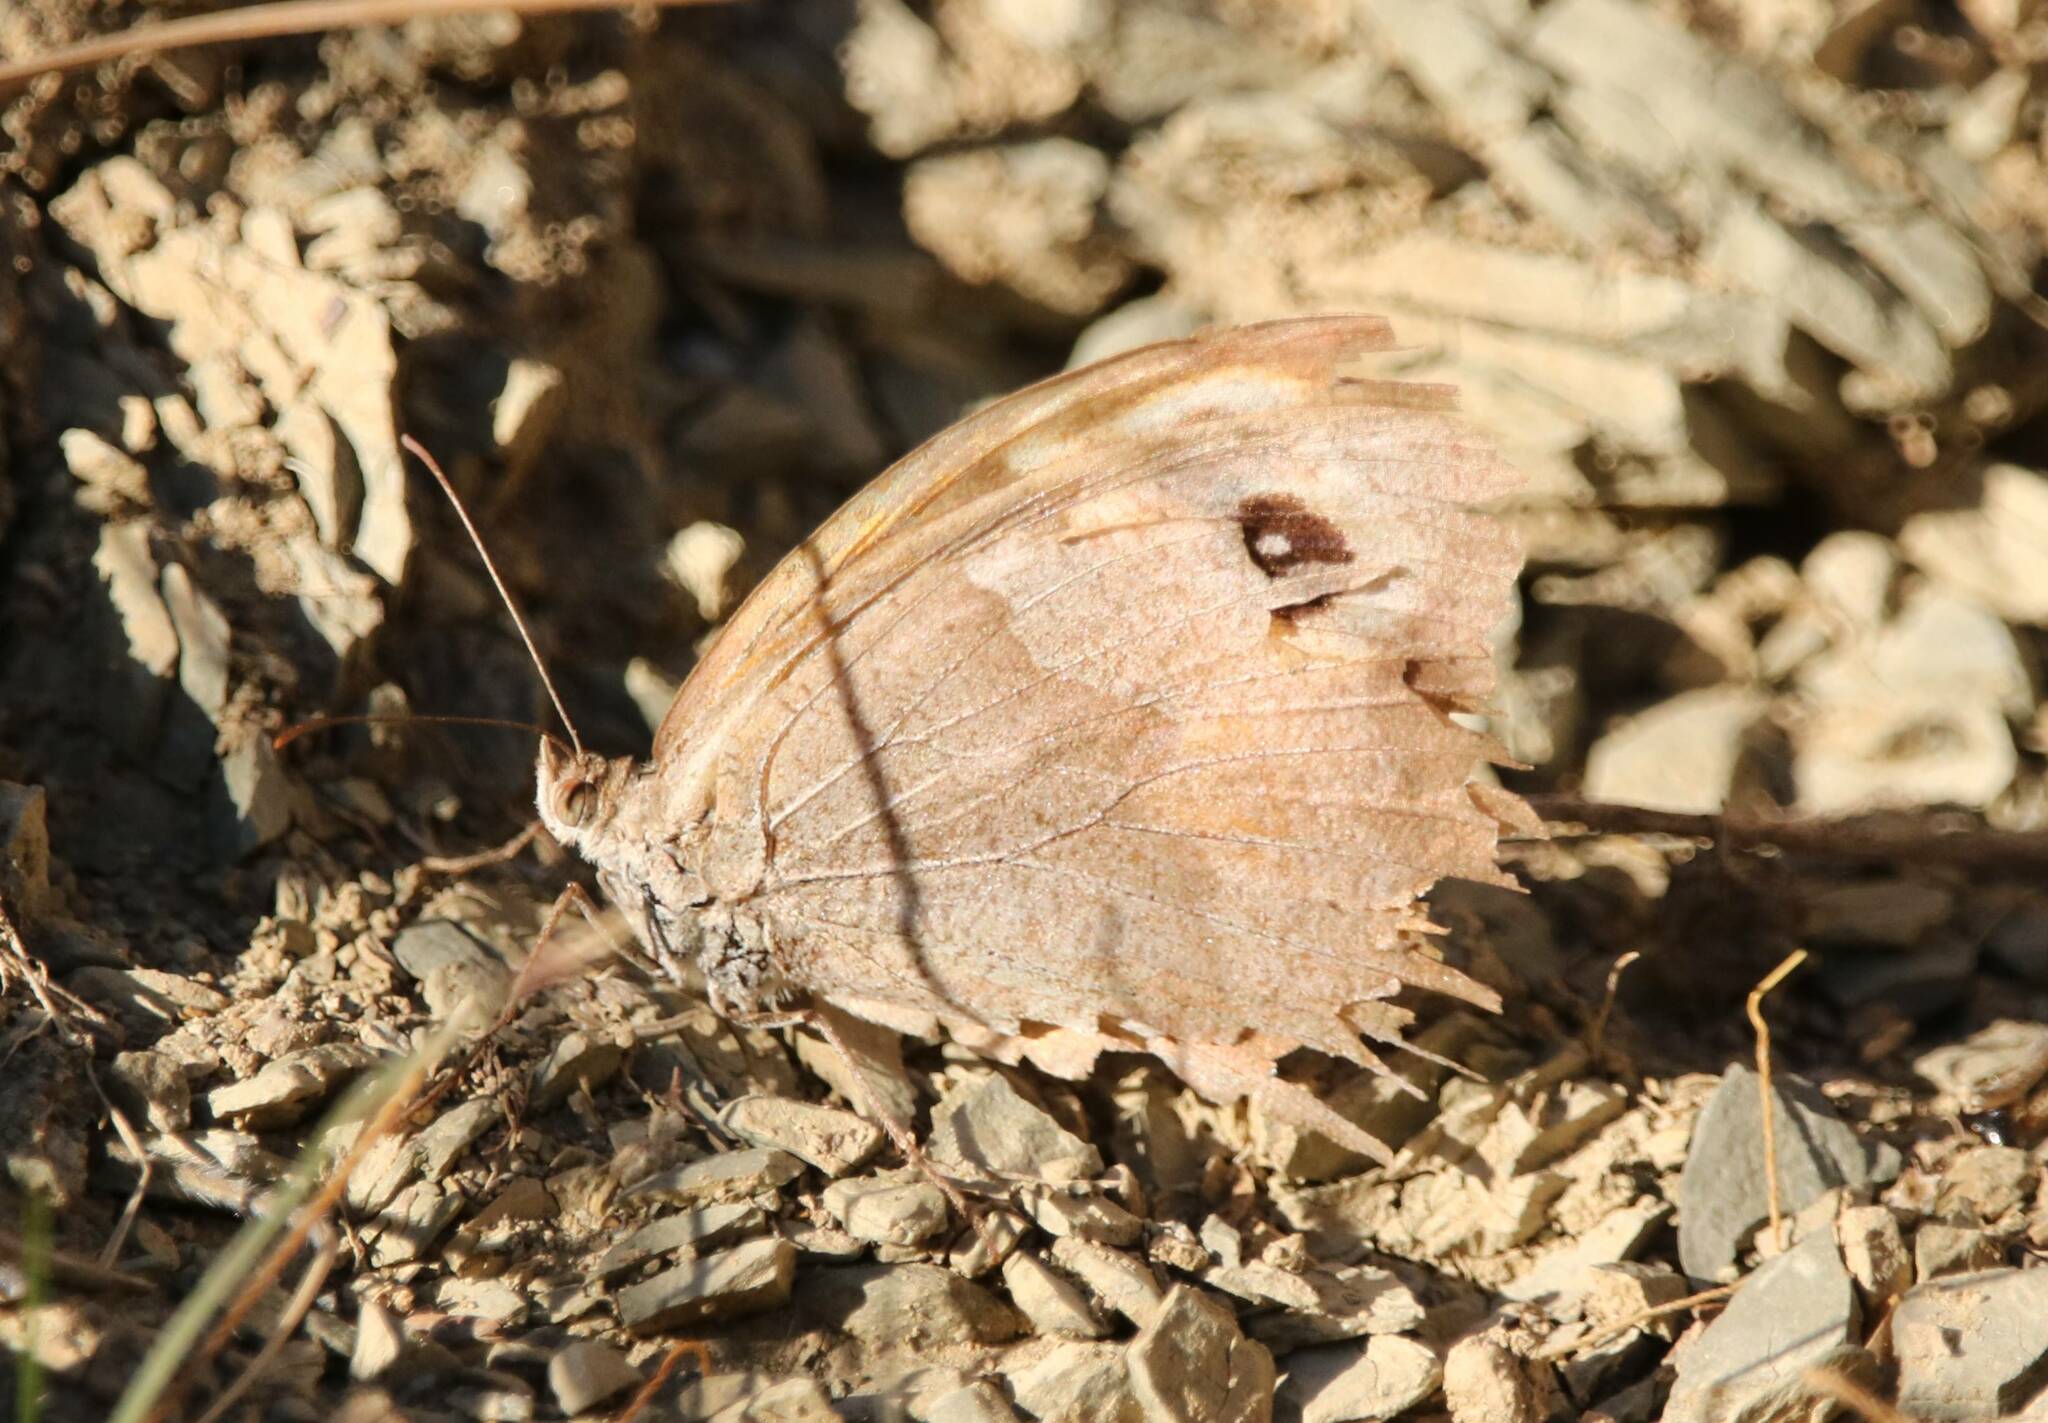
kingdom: Animalia
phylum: Arthropoda
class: Insecta
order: Lepidoptera
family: Nymphalidae
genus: Maniola
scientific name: Maniola jurtina
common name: Meadow brown
